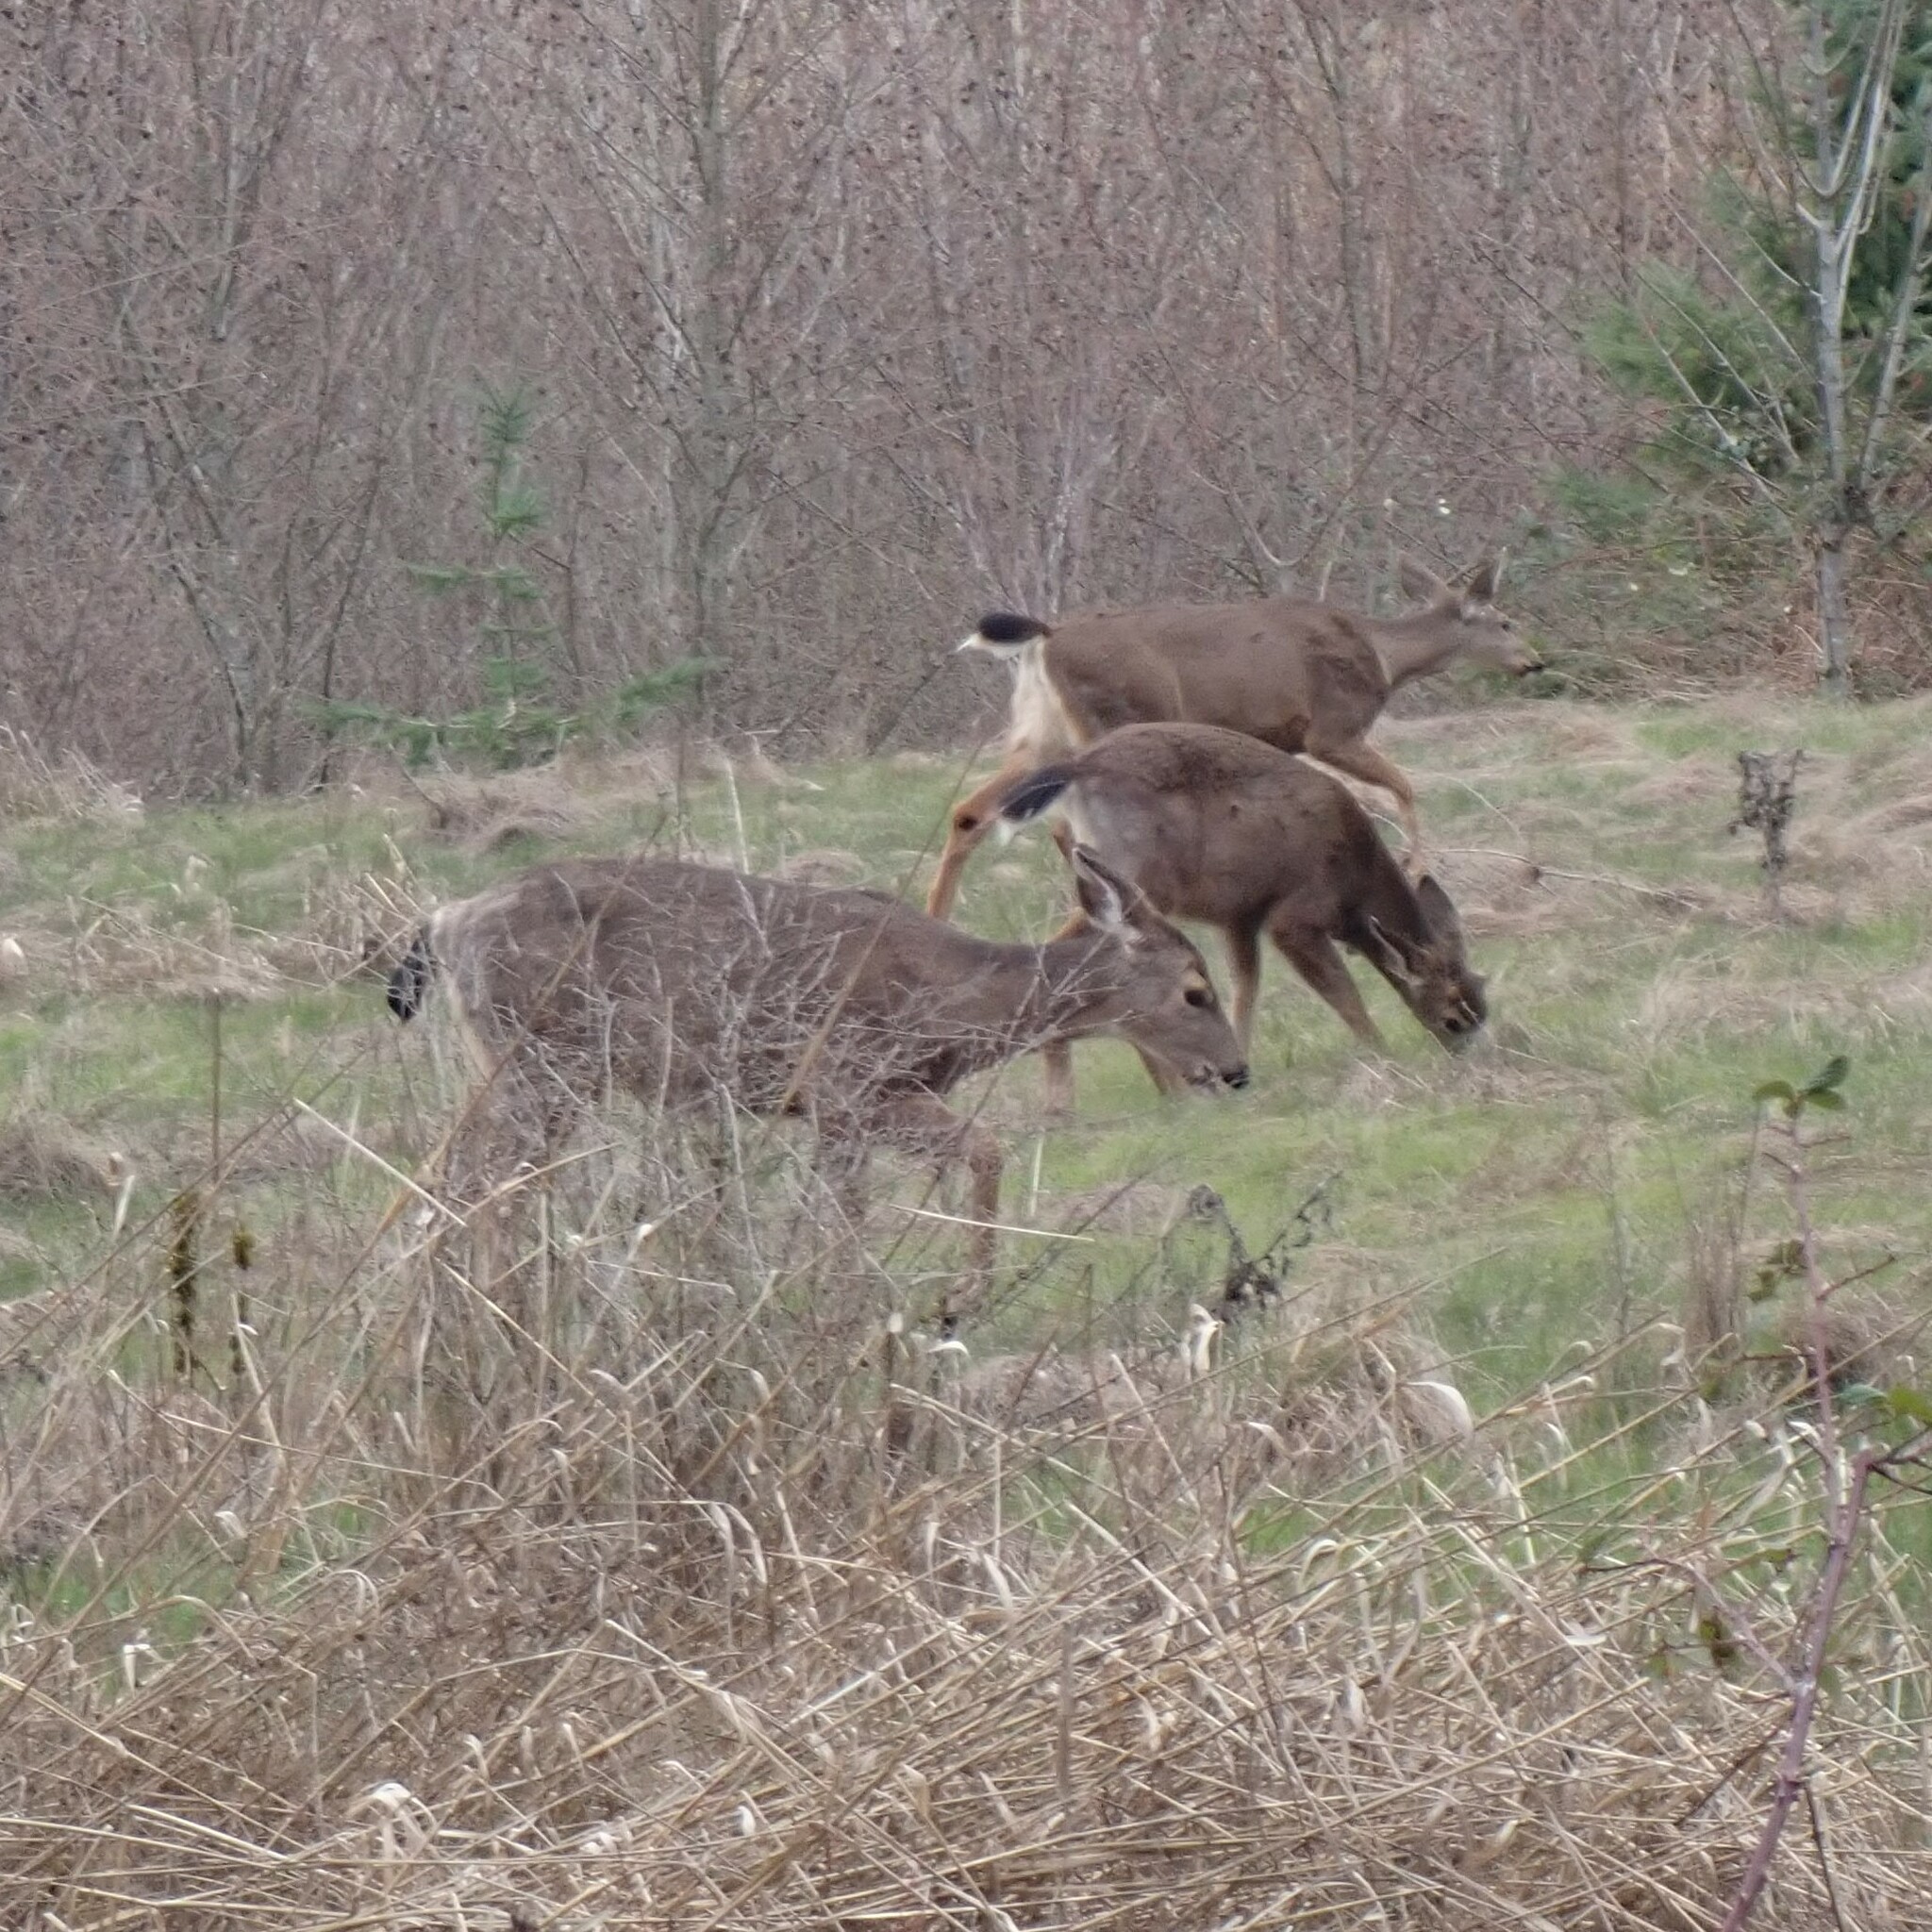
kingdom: Animalia
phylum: Chordata
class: Mammalia
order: Artiodactyla
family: Cervidae
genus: Odocoileus
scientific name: Odocoileus hemionus
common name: Mule deer
